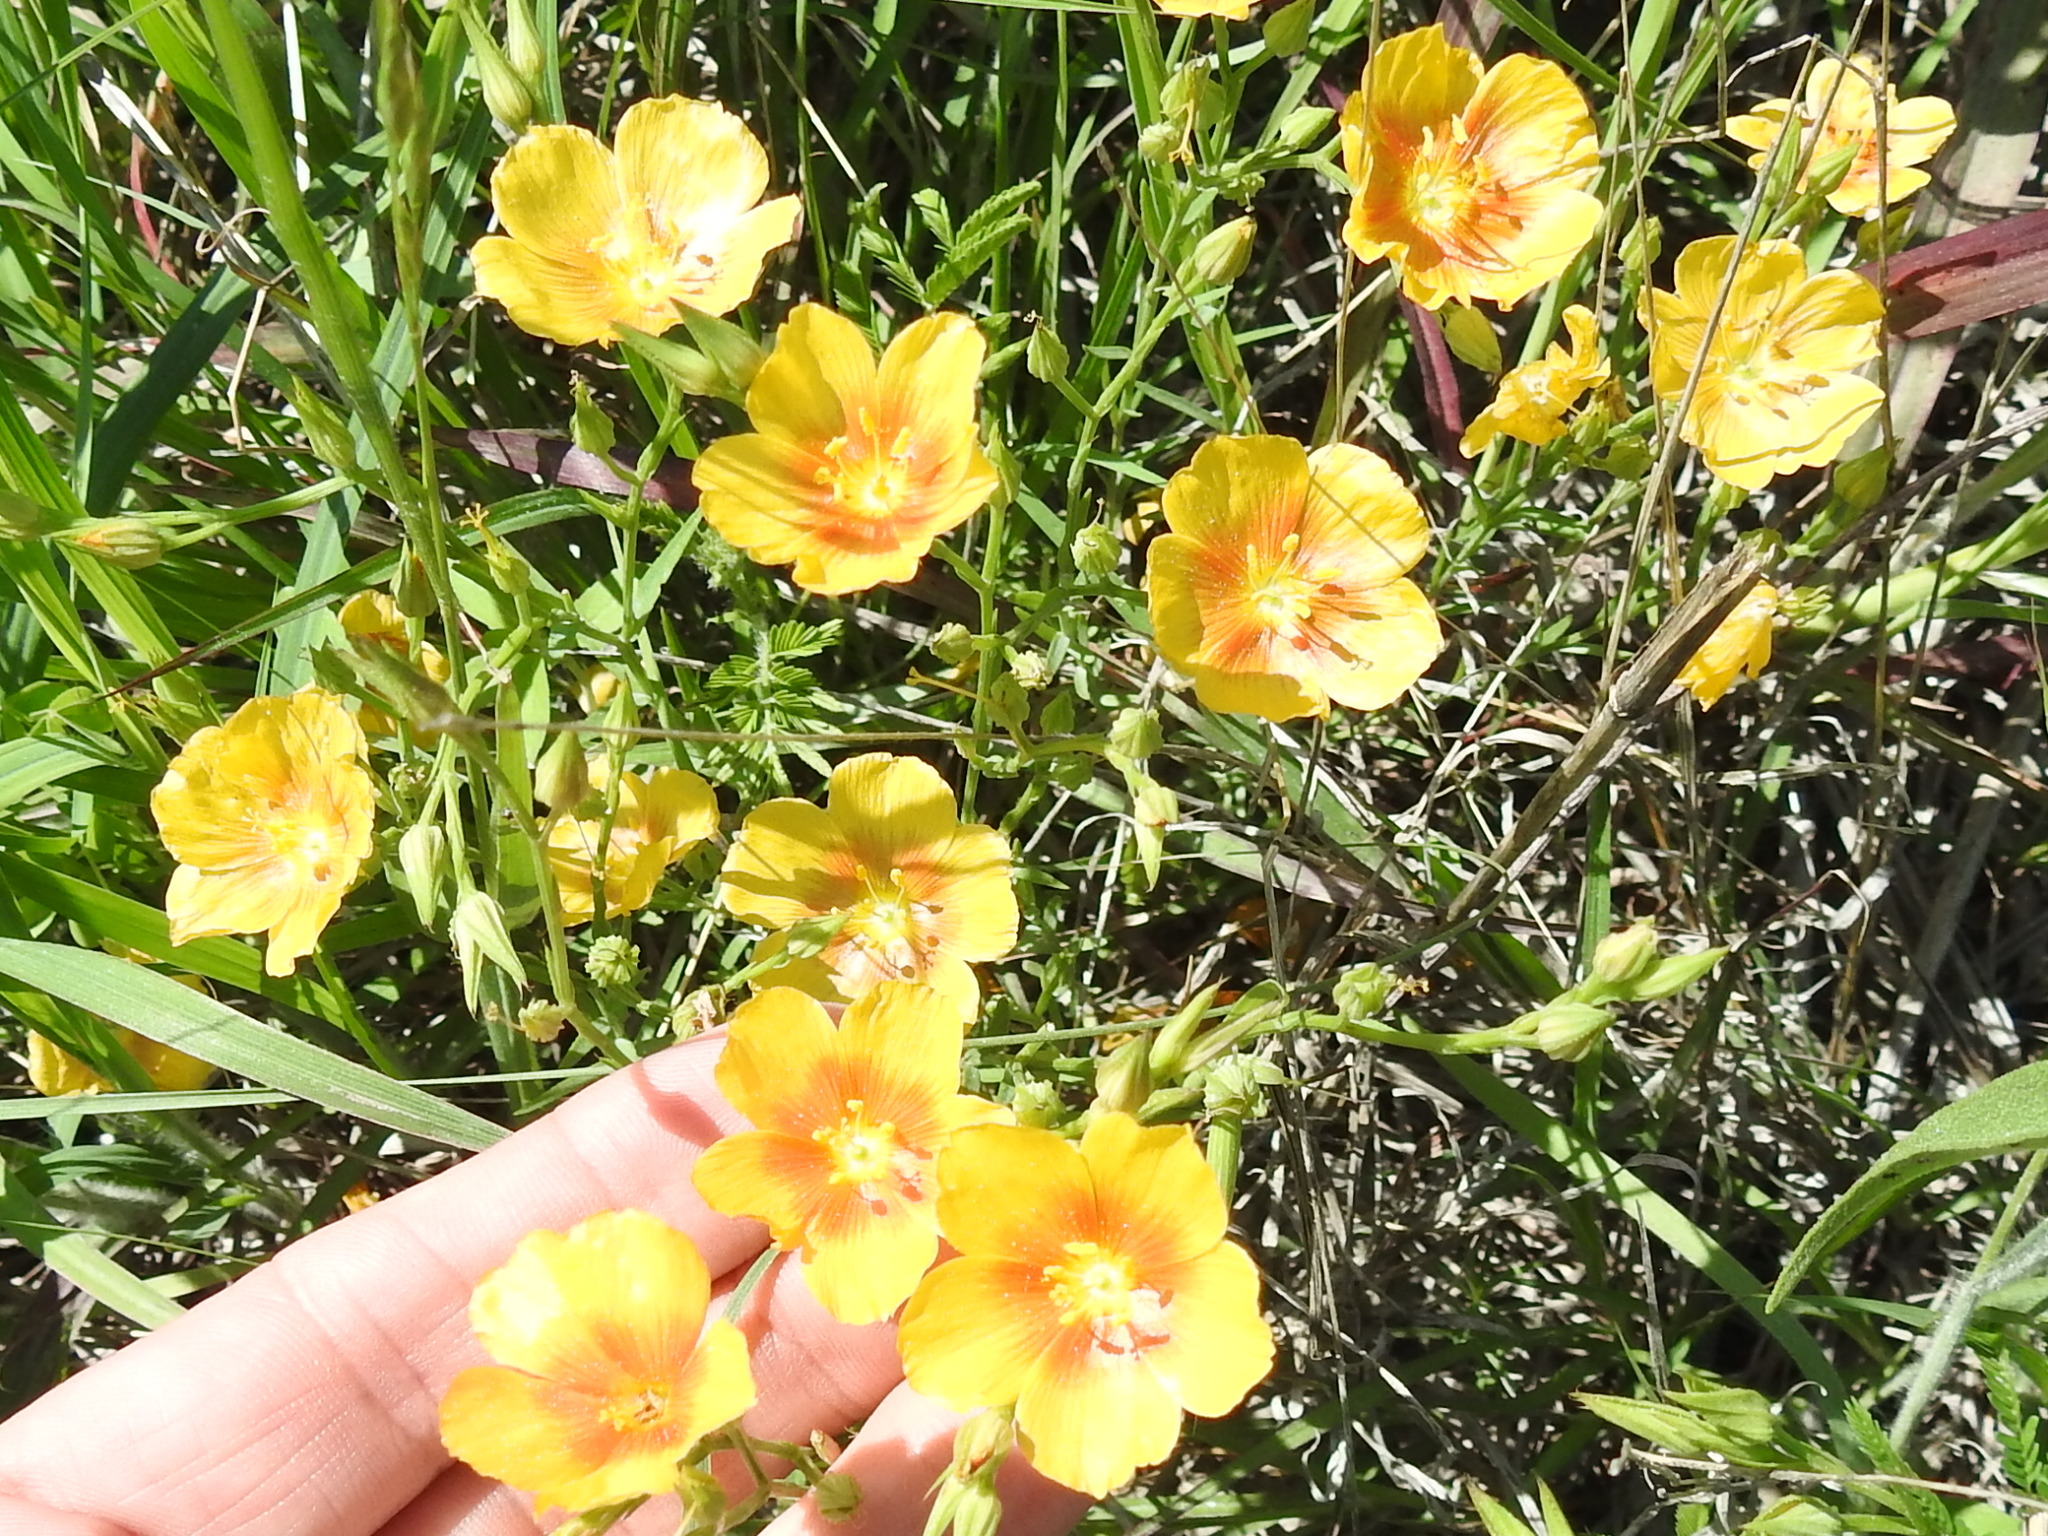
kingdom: Plantae
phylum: Tracheophyta
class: Magnoliopsida
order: Malpighiales
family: Linaceae
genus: Linum
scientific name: Linum rigidum
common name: Stiff-stem flax
